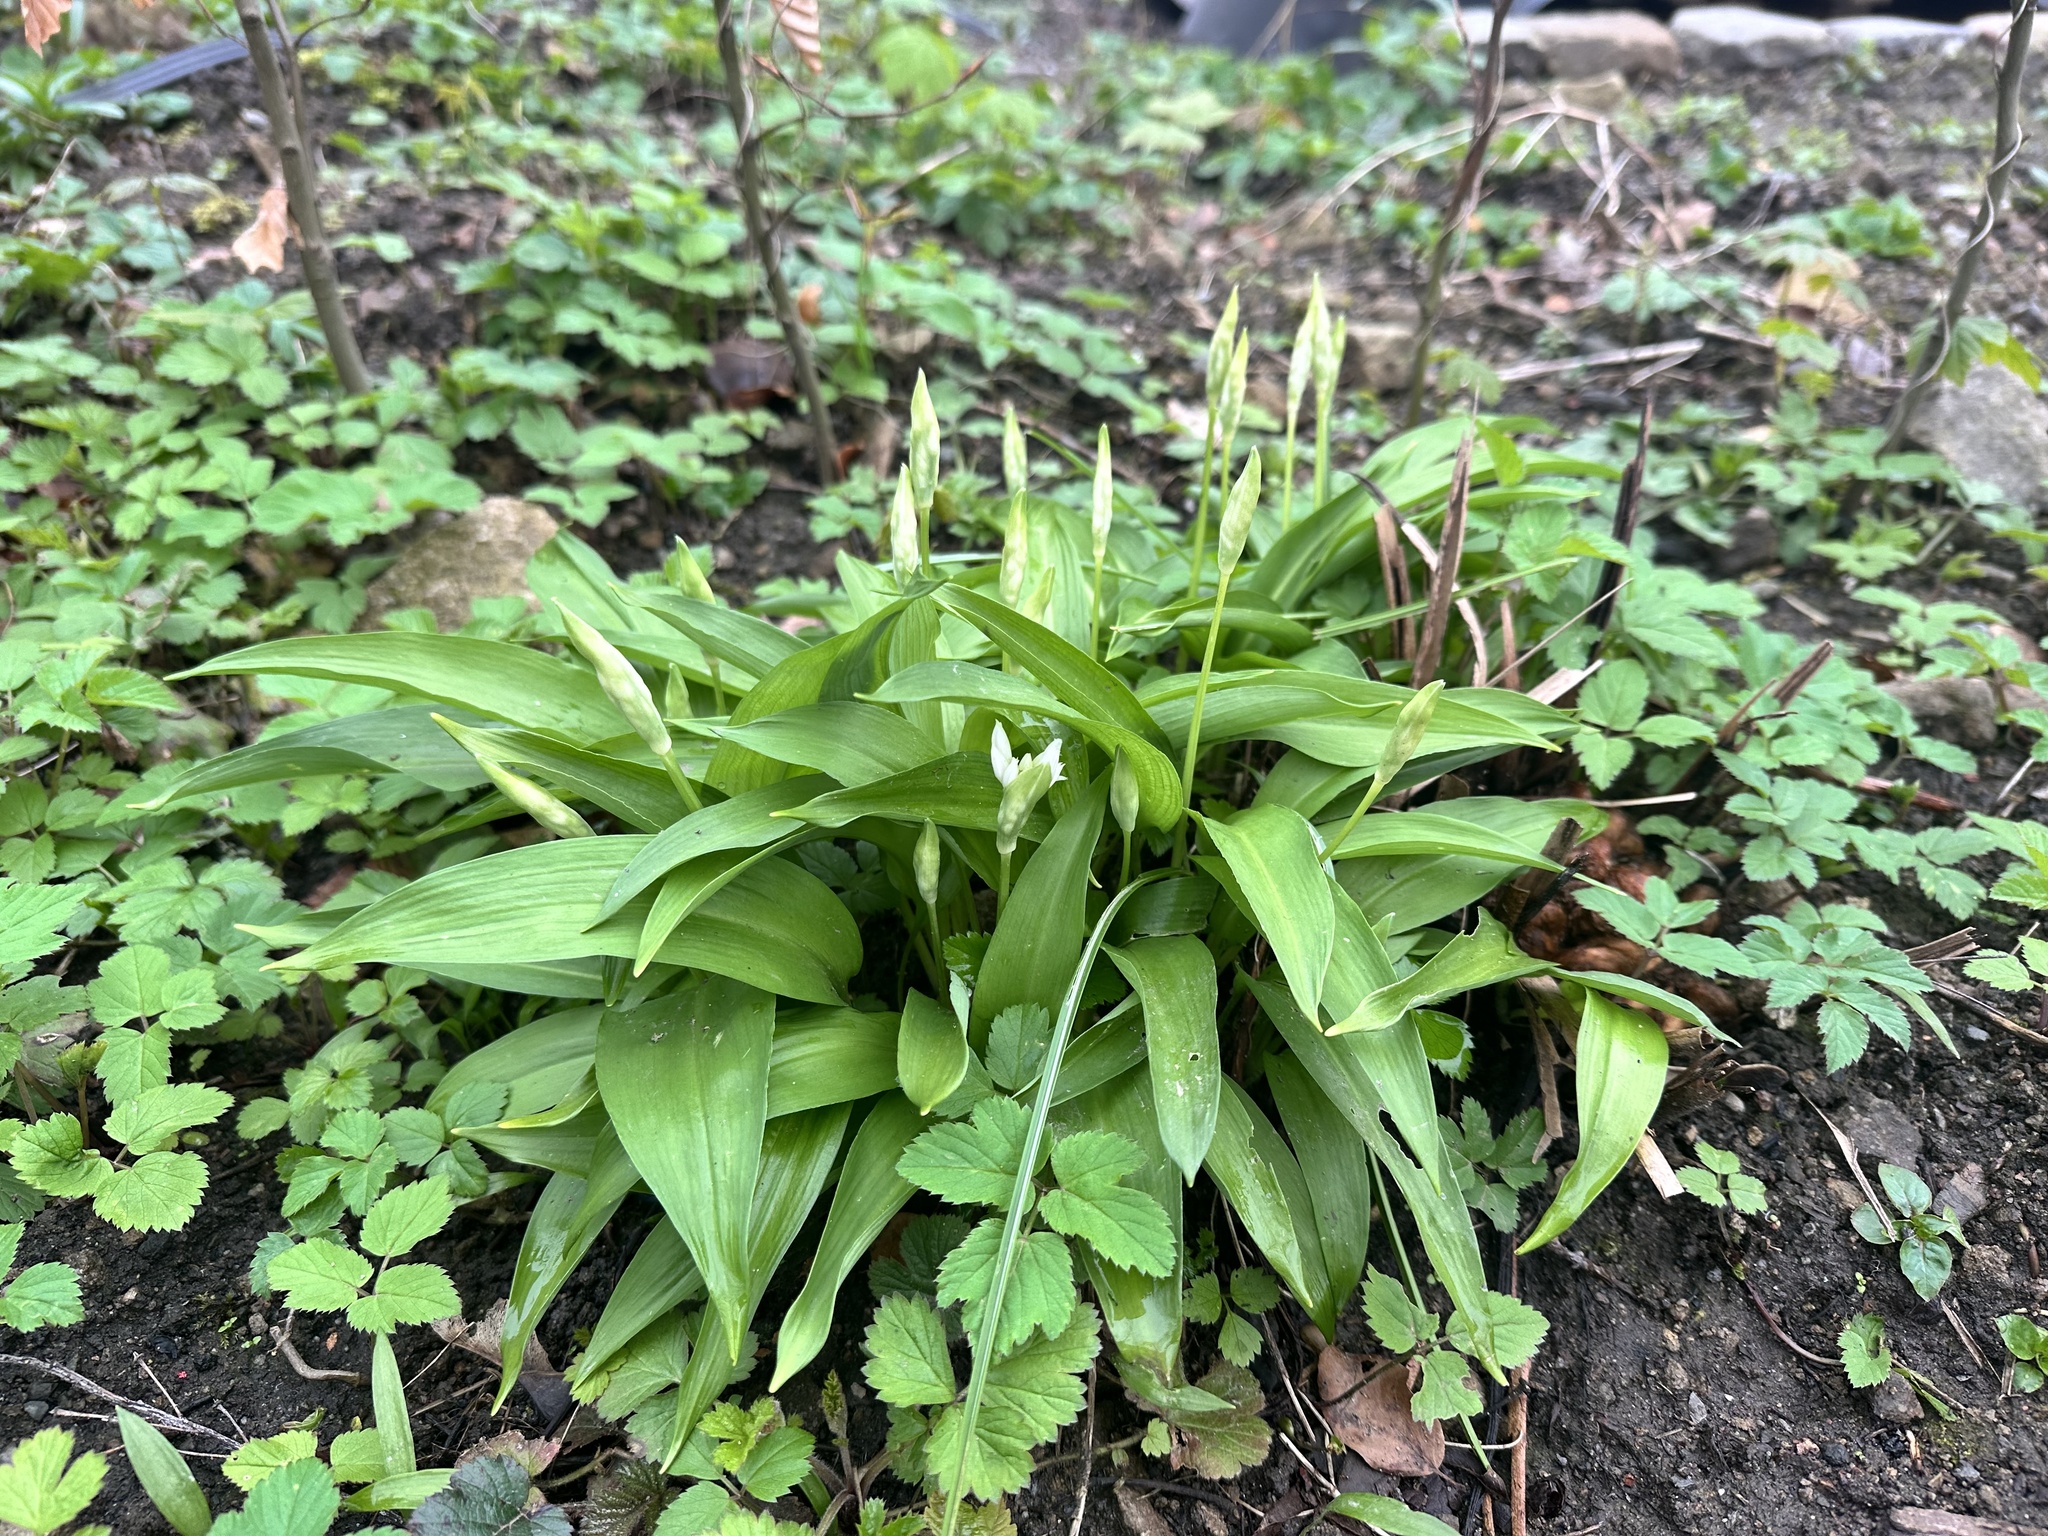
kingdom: Plantae
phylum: Tracheophyta
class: Liliopsida
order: Asparagales
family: Amaryllidaceae
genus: Allium
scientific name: Allium ursinum
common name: Ramsons
